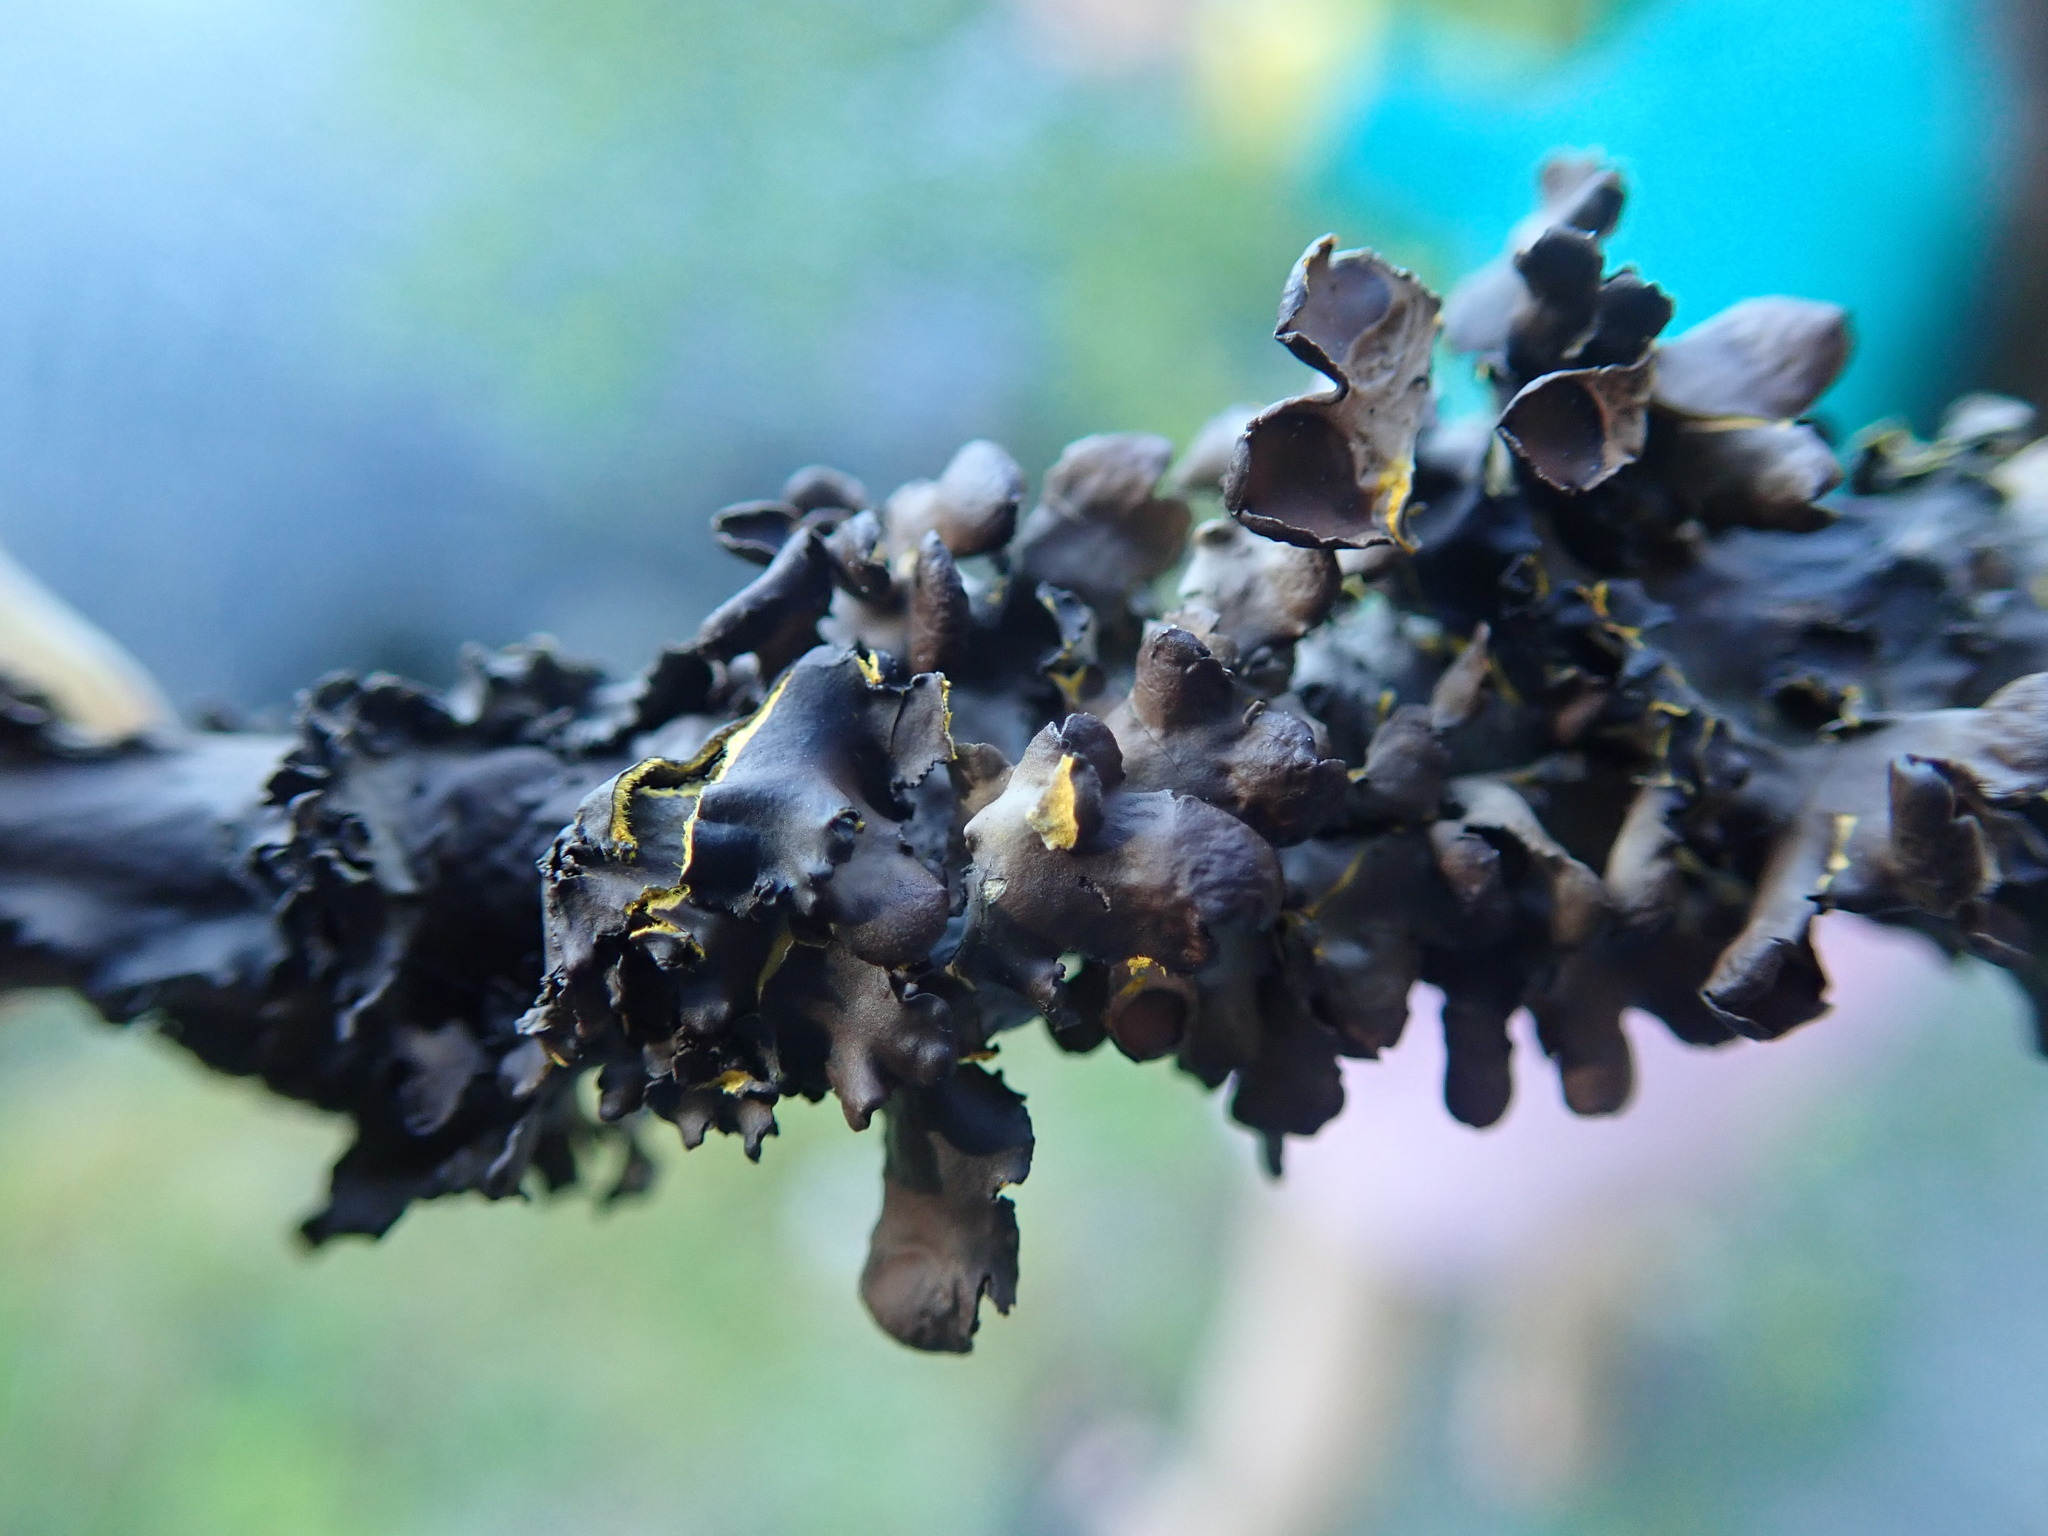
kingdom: Fungi
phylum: Ascomycota
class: Lecanoromycetes
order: Peltigerales
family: Nephromataceae
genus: Nephroma
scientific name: Nephroma laevigatum
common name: Mustard kidney lichen
